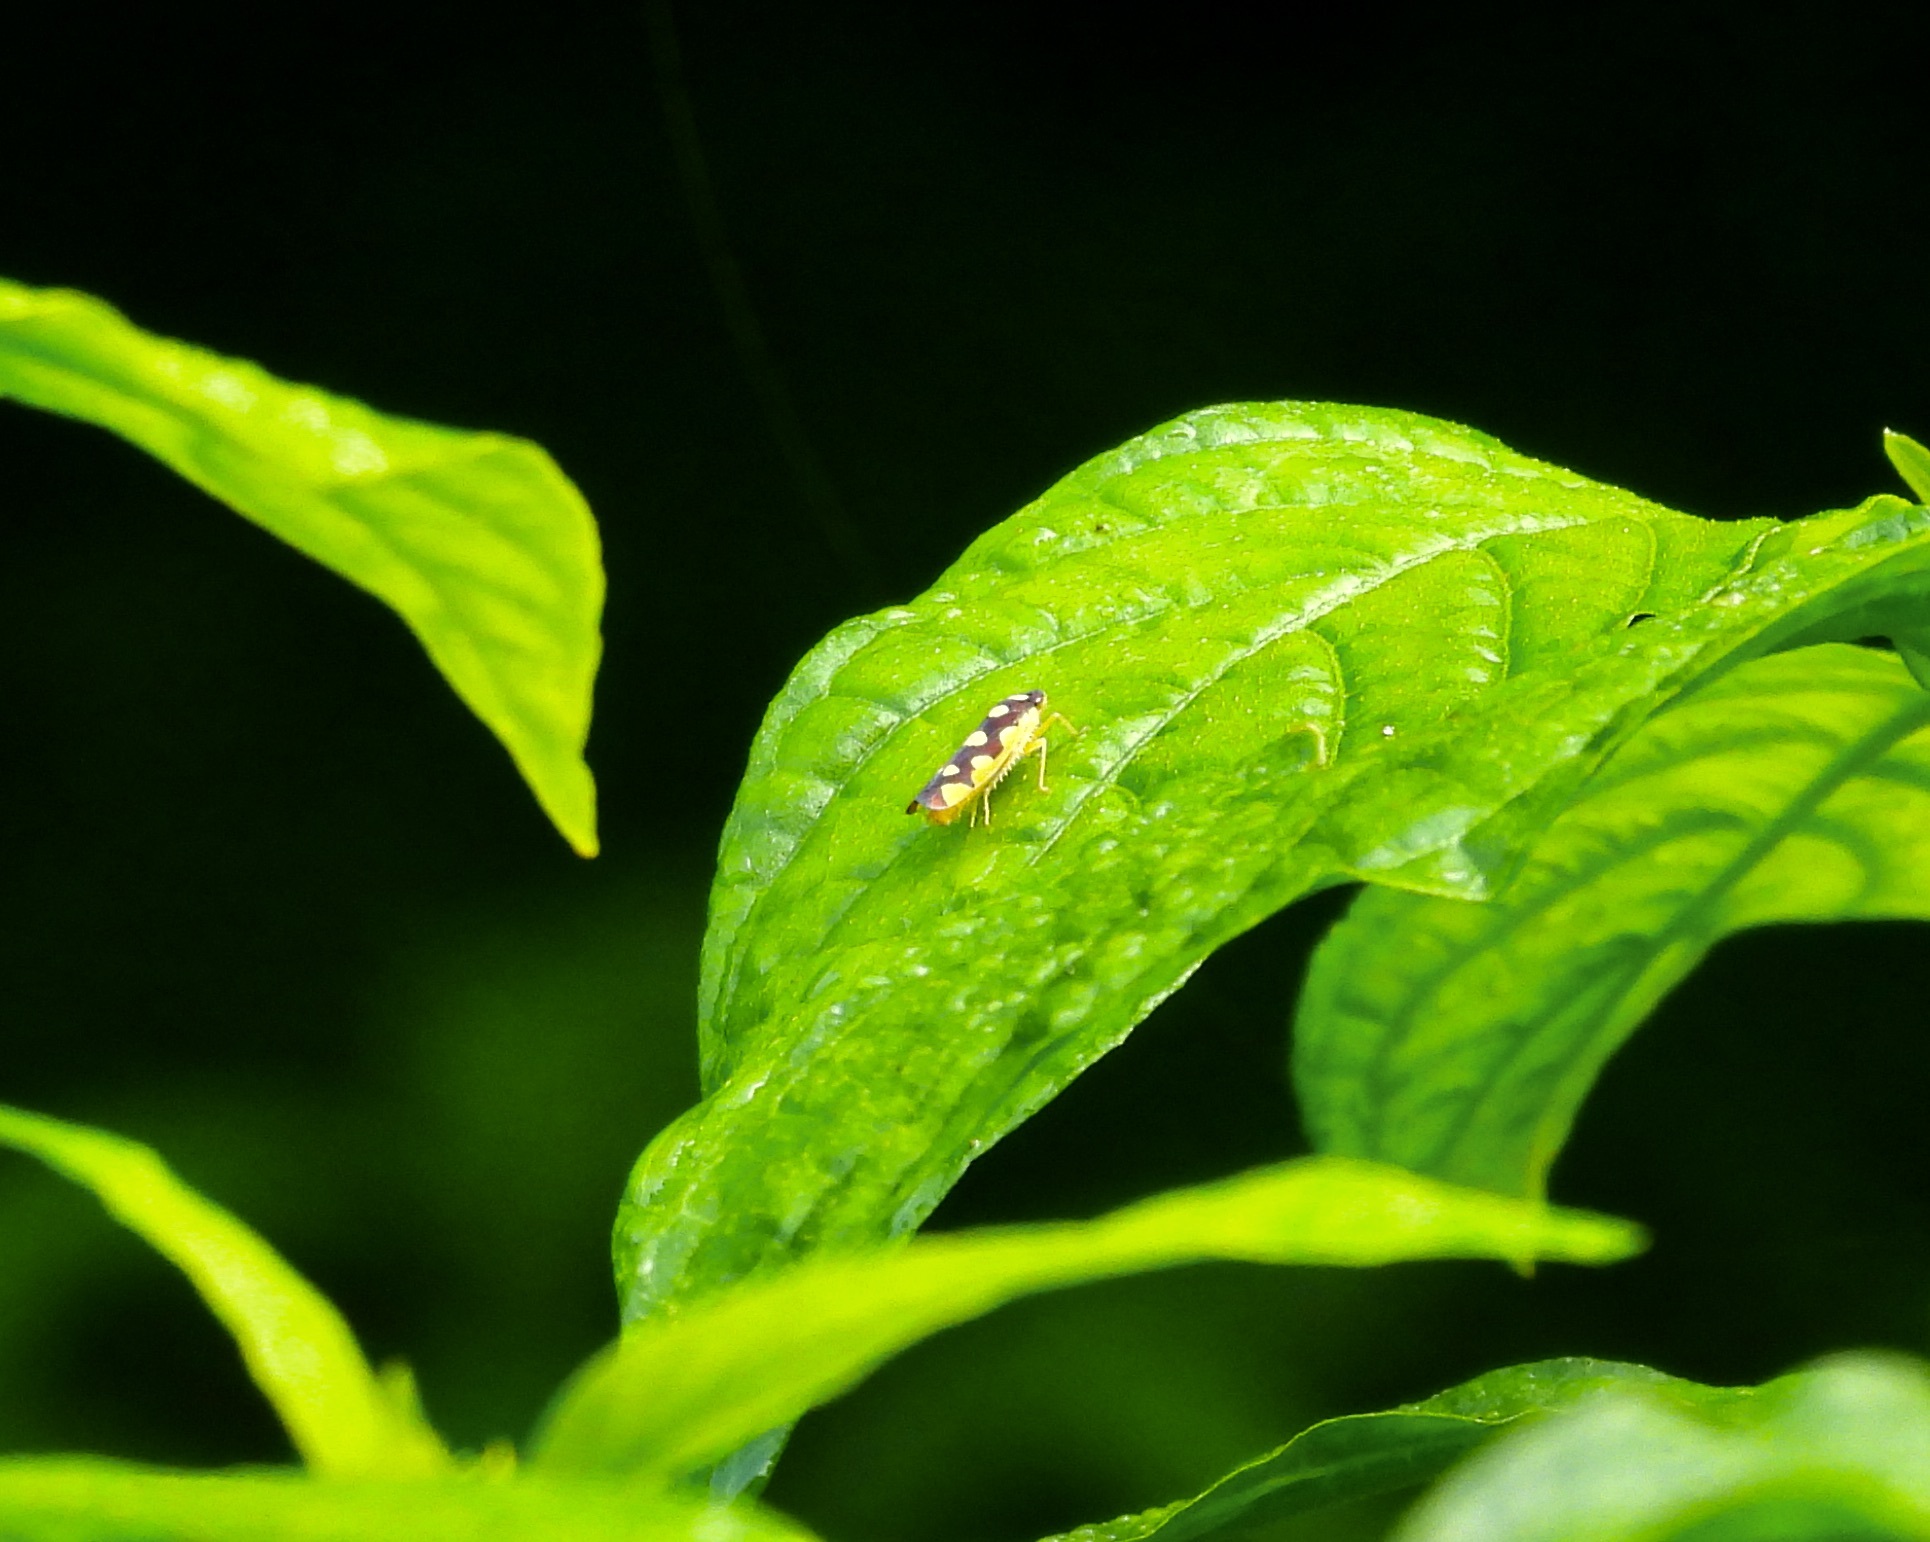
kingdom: Animalia
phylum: Arthropoda
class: Insecta
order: Hemiptera
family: Cicadellidae
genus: Baleja
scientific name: Baleja flavoguttata
